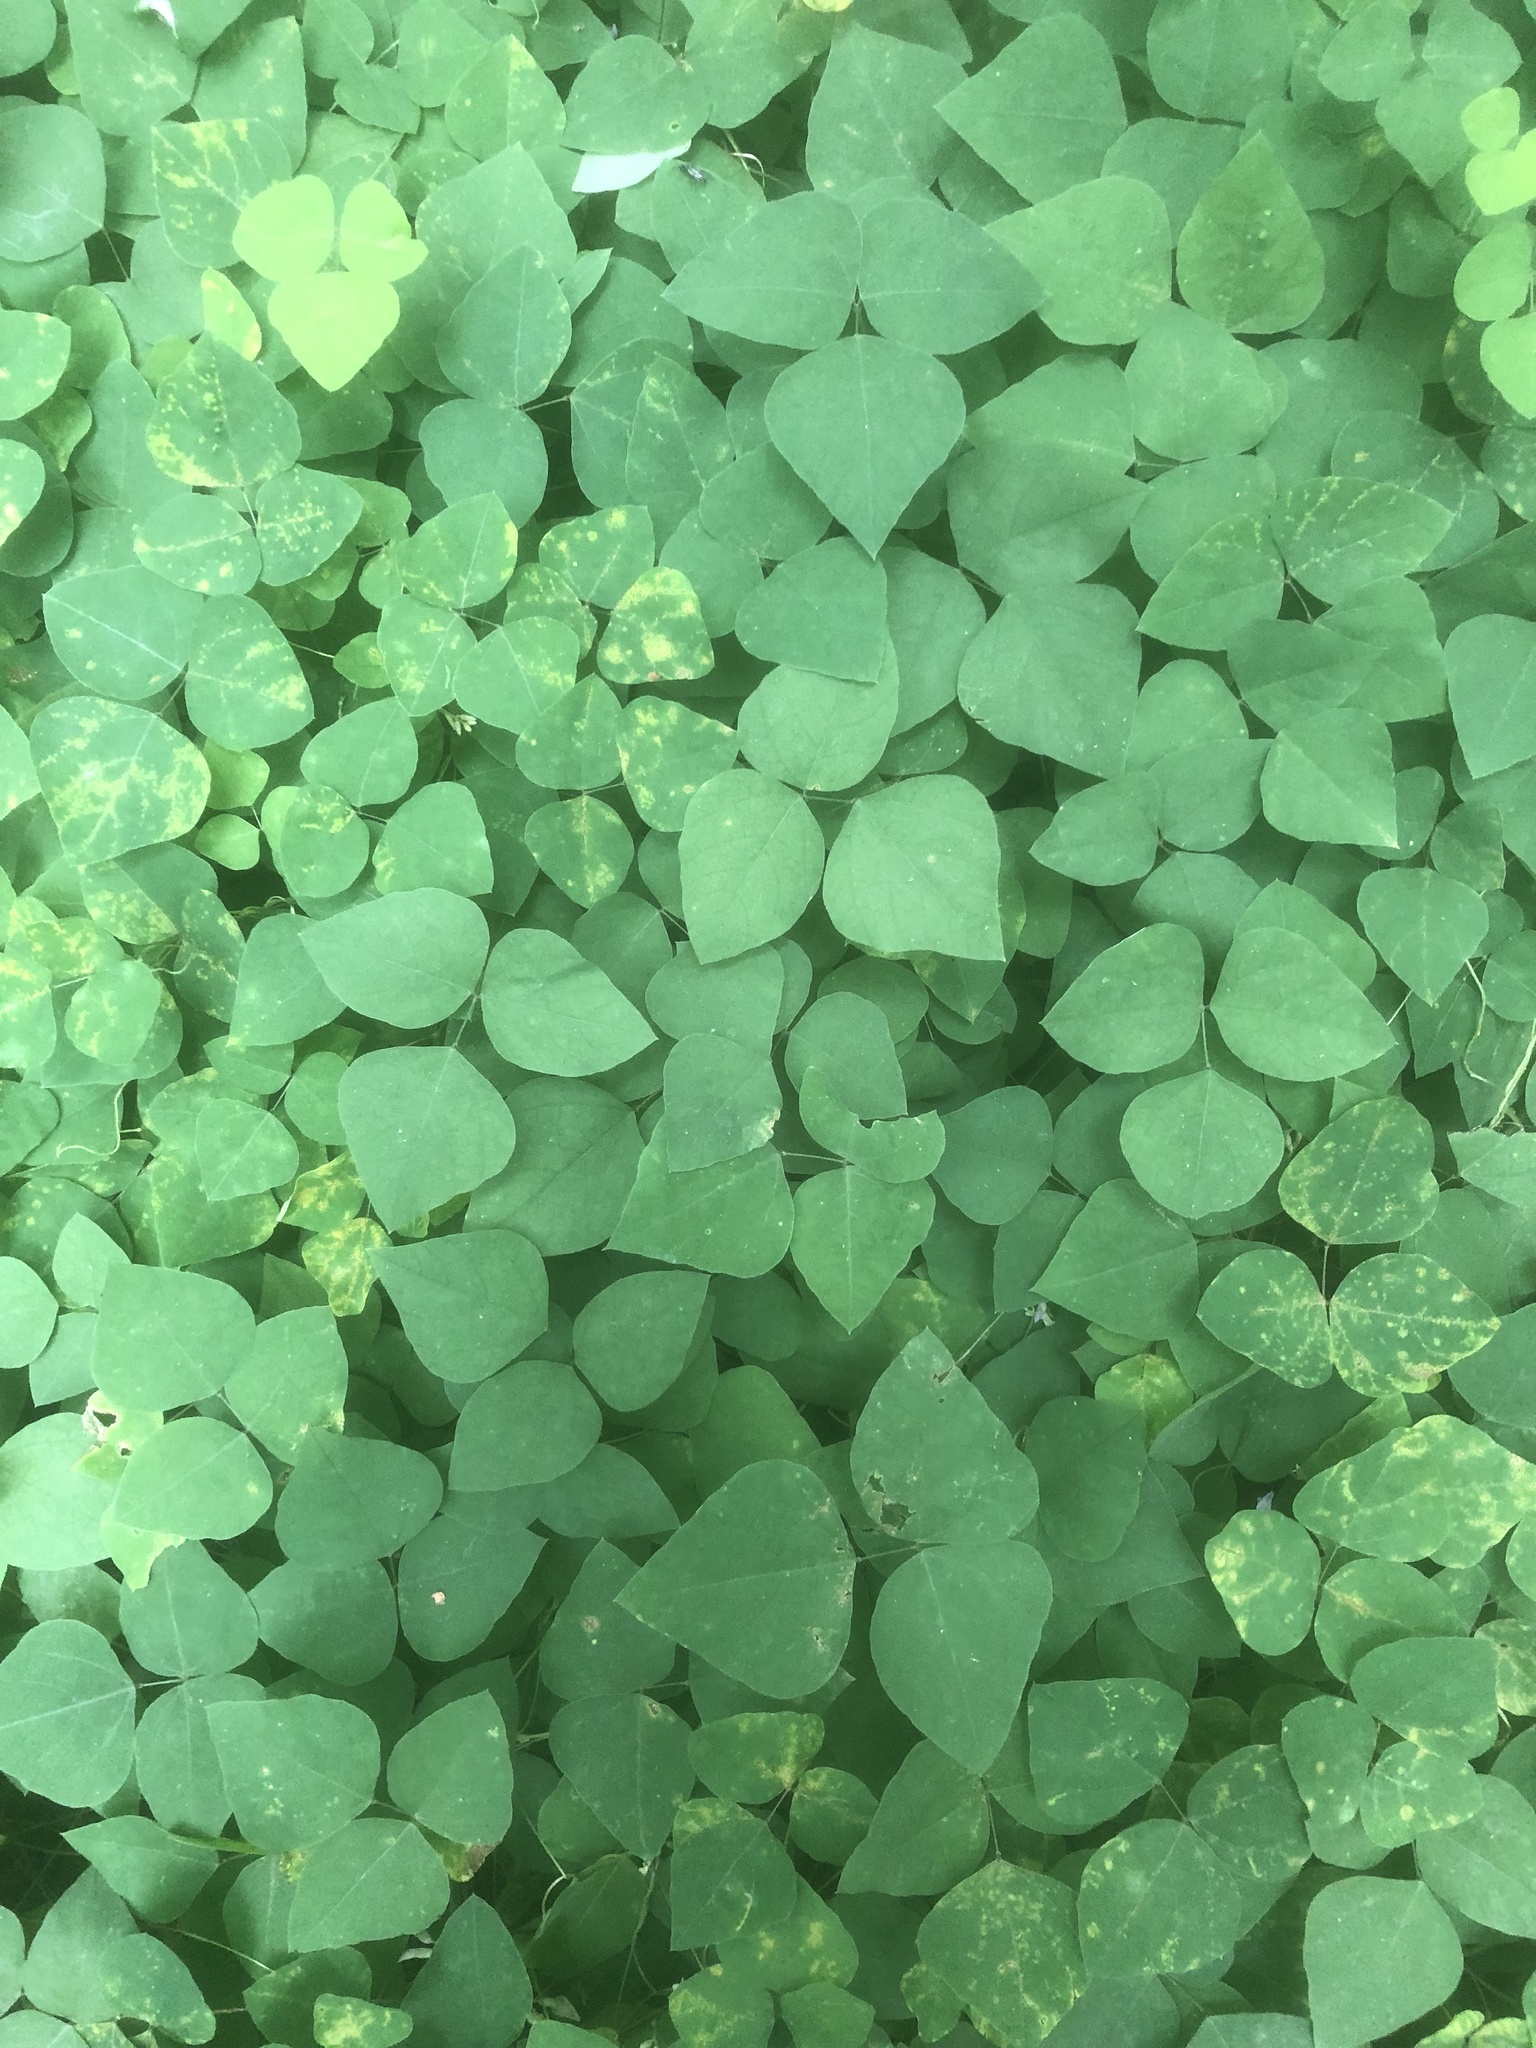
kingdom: Plantae
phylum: Tracheophyta
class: Magnoliopsida
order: Fabales
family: Fabaceae
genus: Amphicarpaea
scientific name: Amphicarpaea bracteata
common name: American hog peanut
